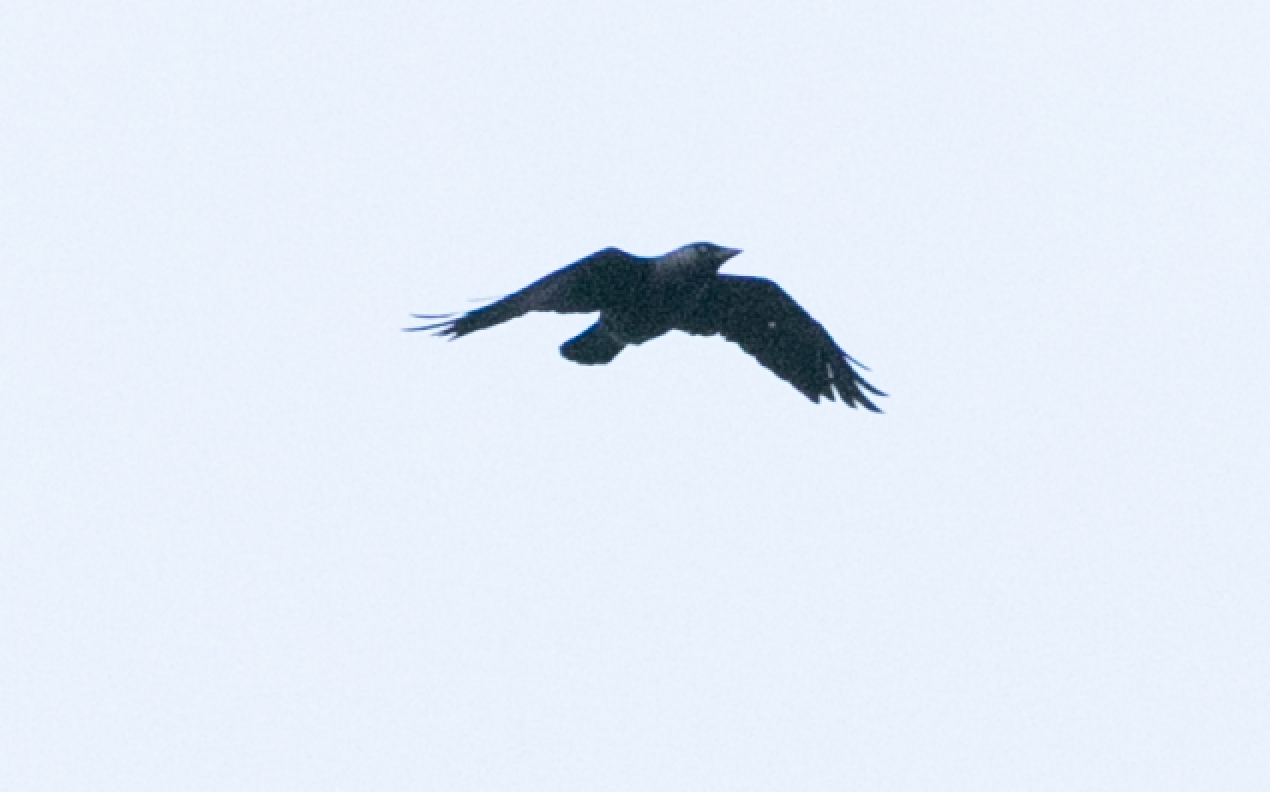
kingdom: Animalia
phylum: Chordata
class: Aves
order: Passeriformes
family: Corvidae
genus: Coloeus
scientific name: Coloeus monedula
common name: Western jackdaw
